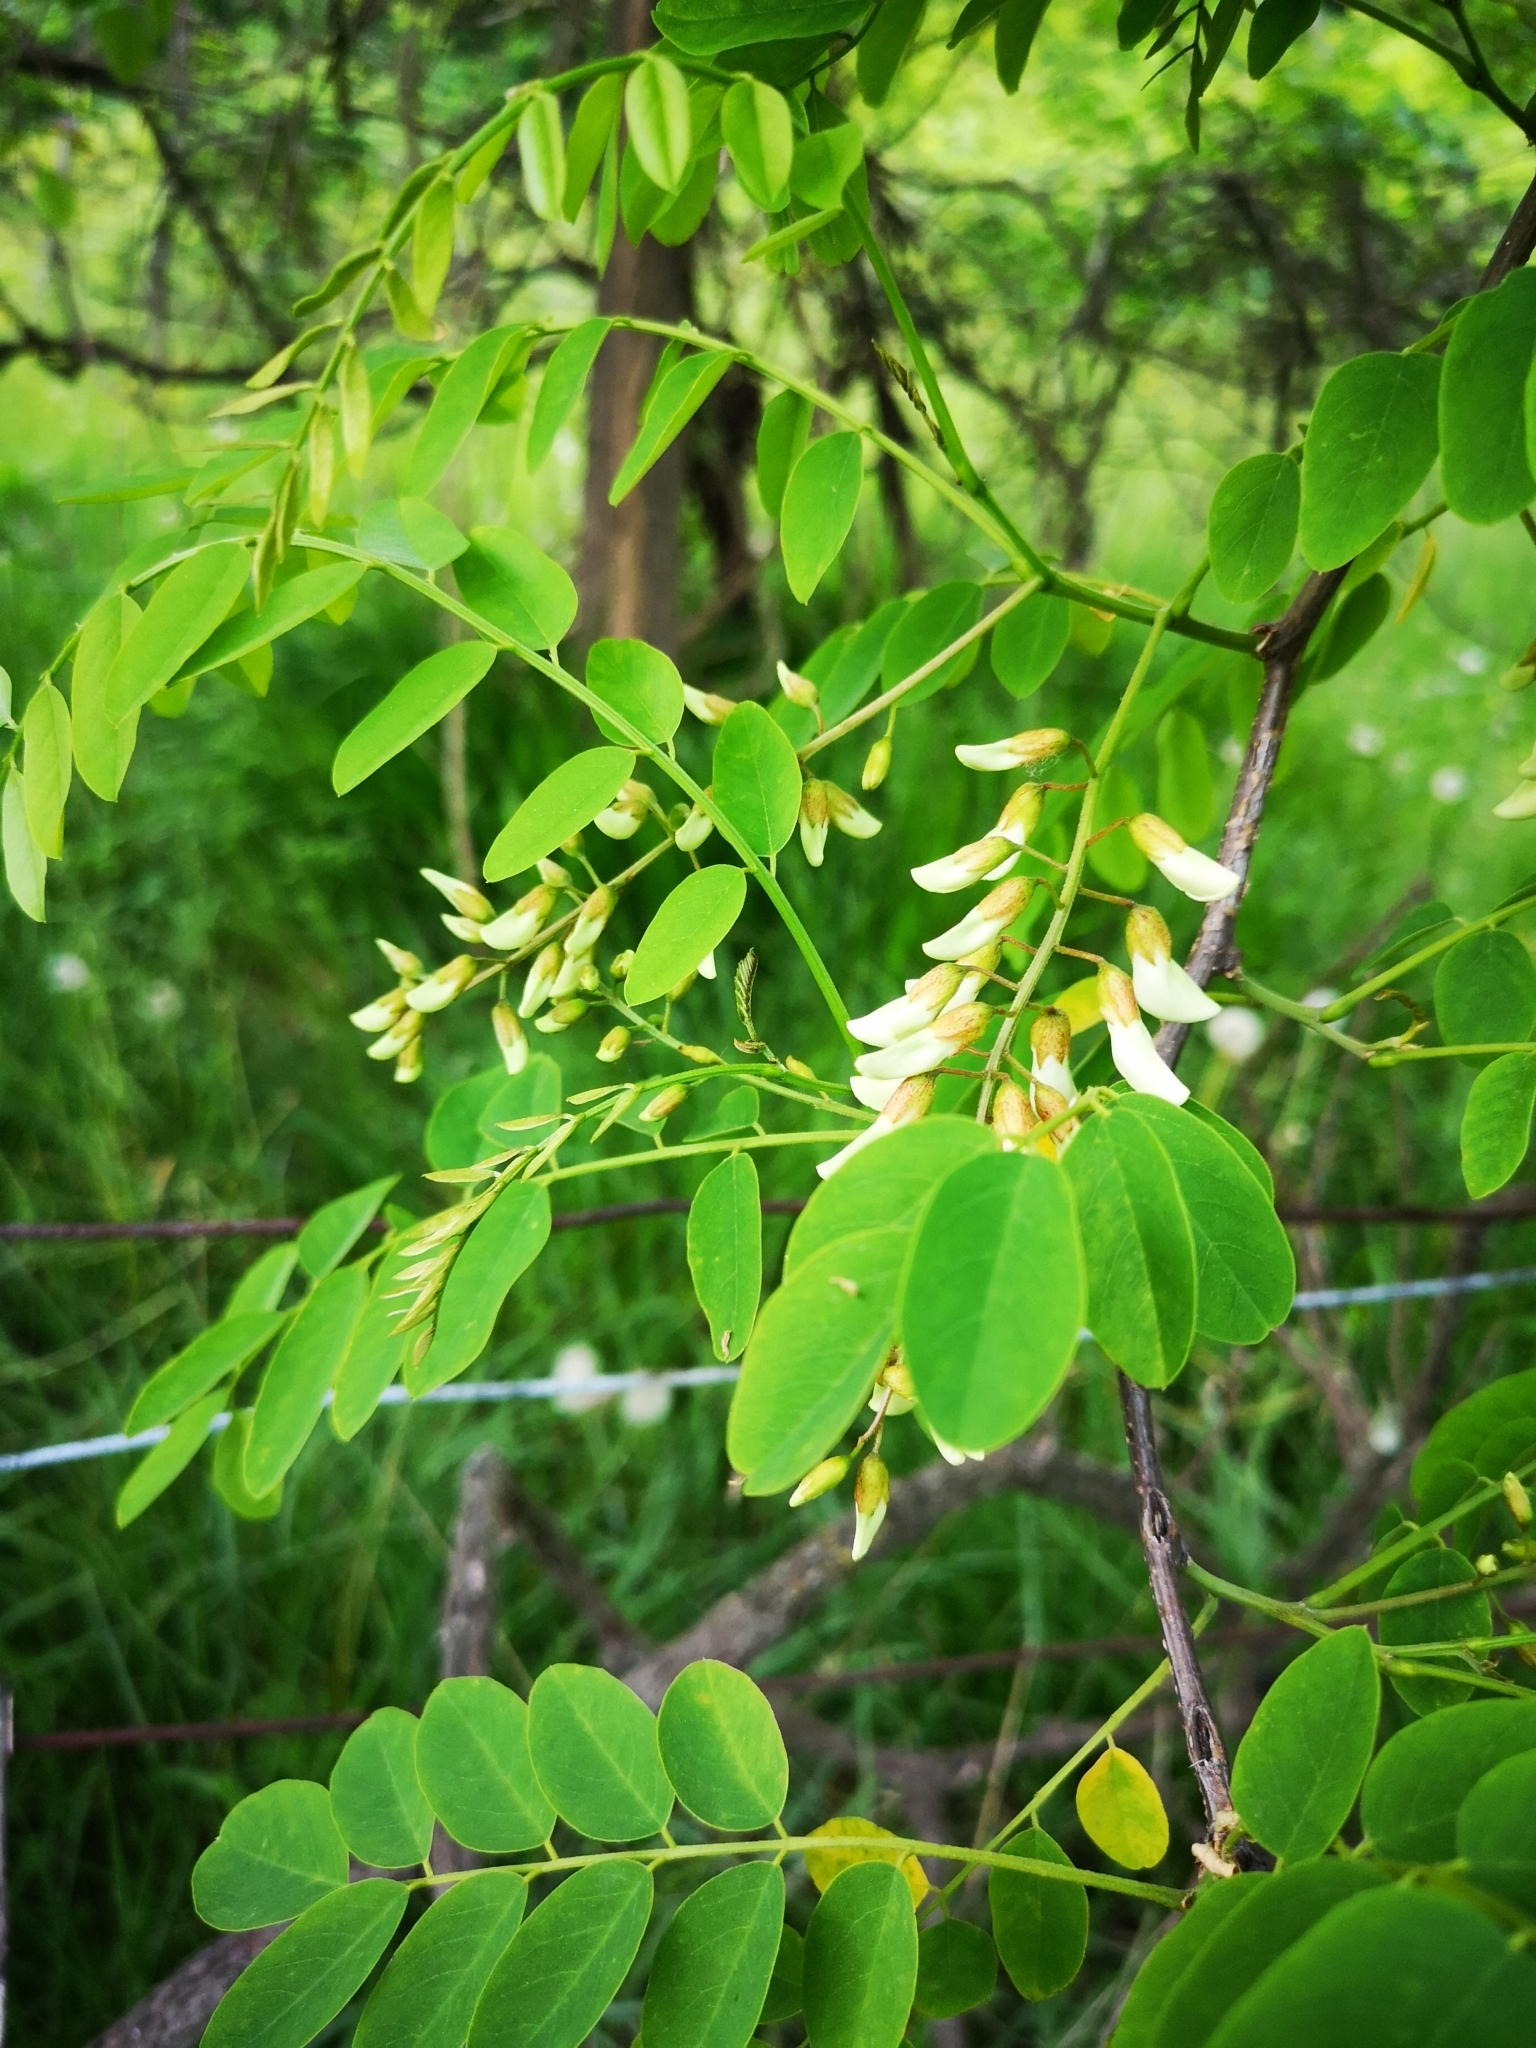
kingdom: Plantae
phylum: Tracheophyta
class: Magnoliopsida
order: Fabales
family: Fabaceae
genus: Robinia
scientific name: Robinia pseudoacacia
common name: Black locust
